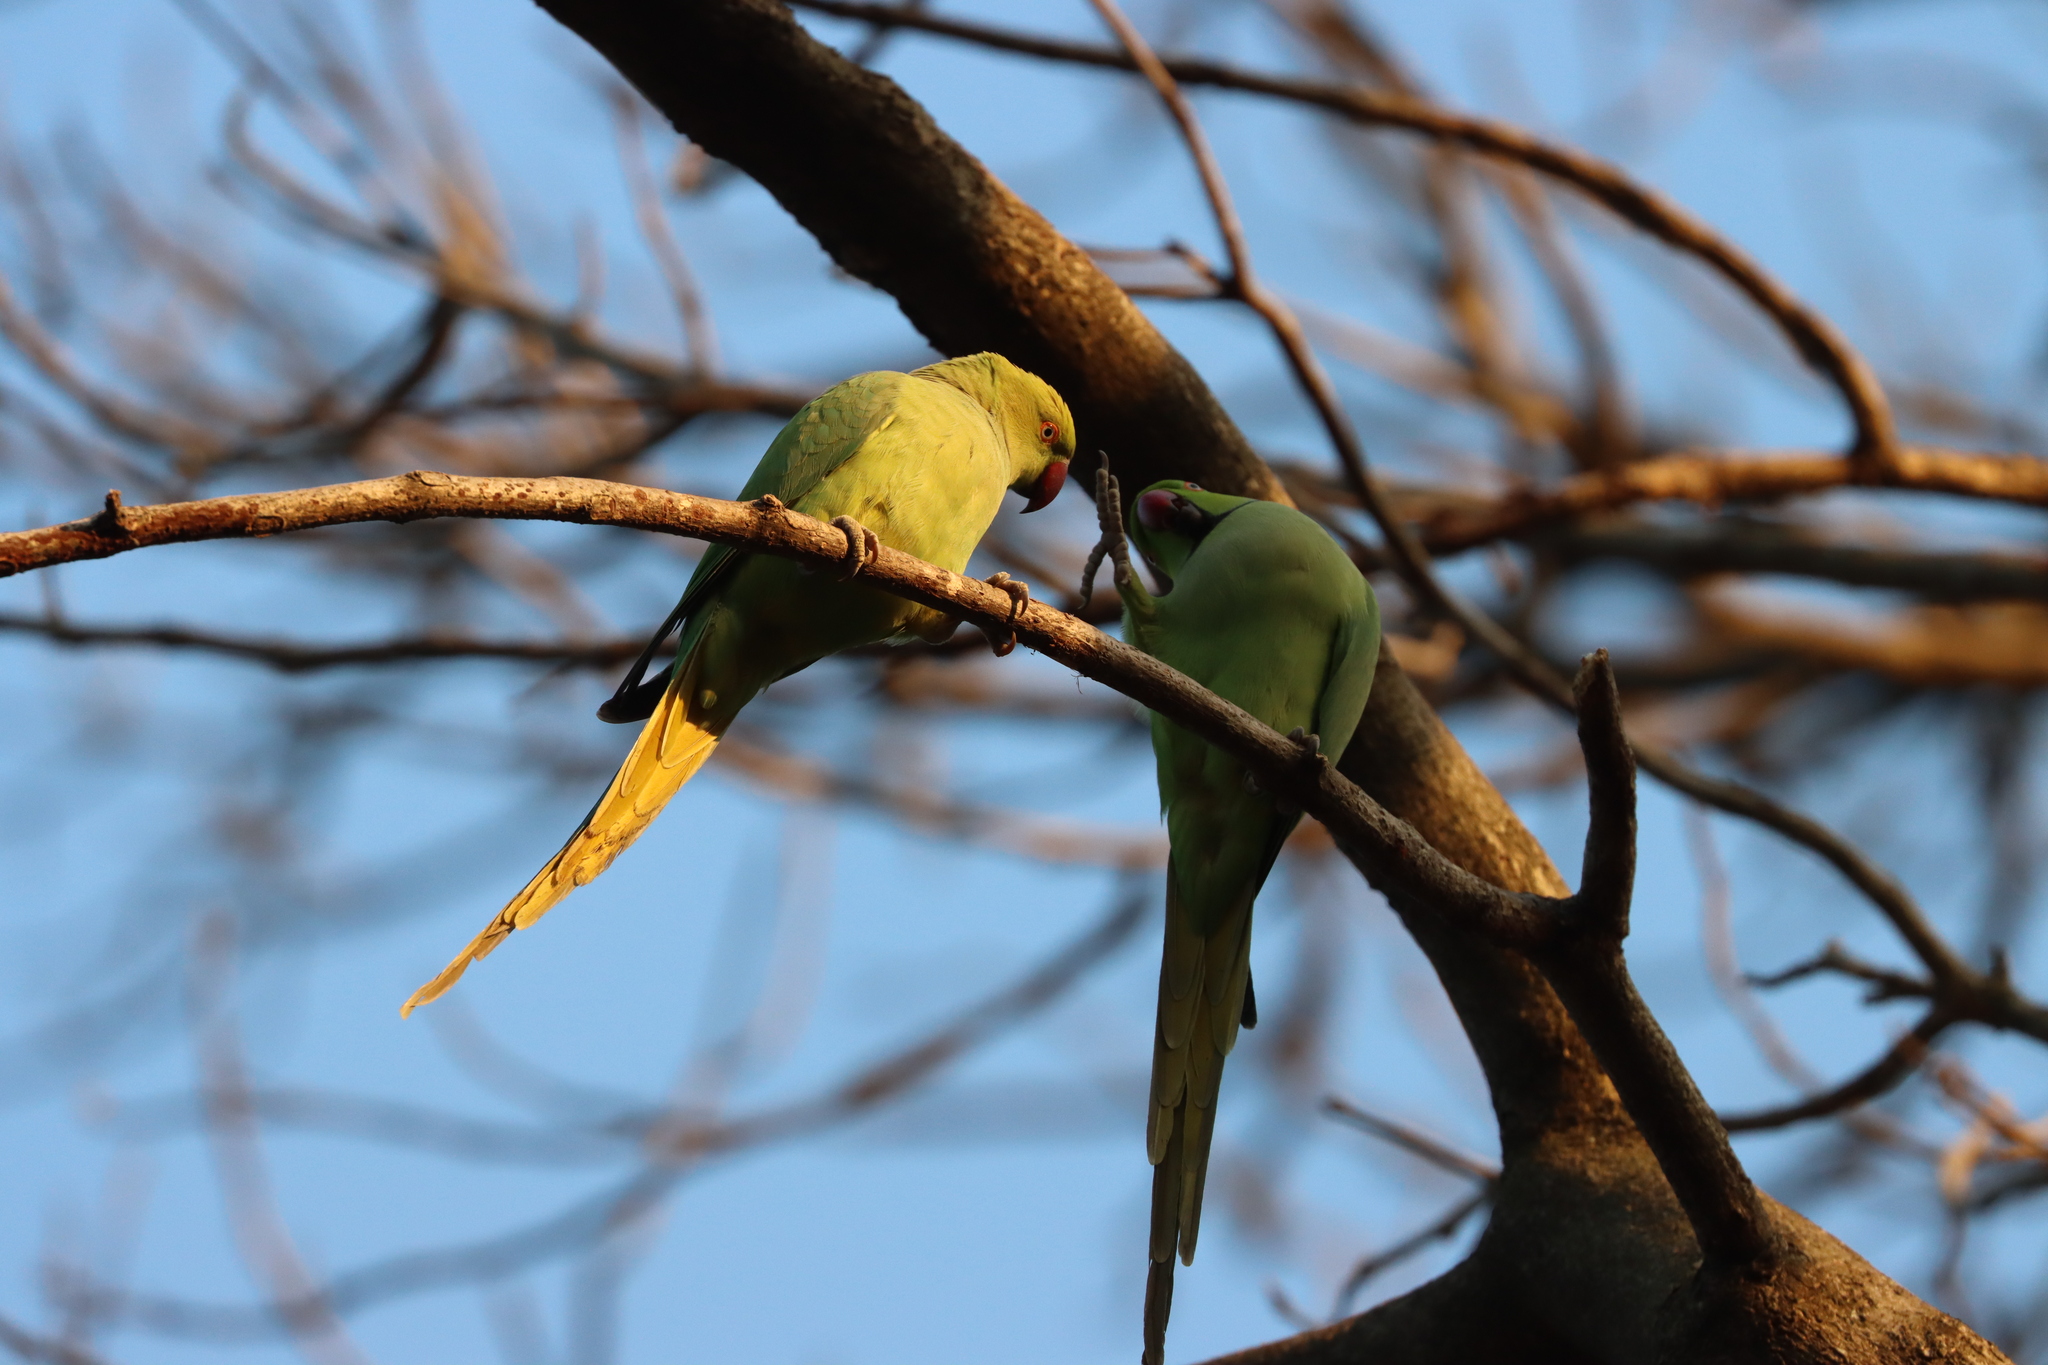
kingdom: Animalia
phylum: Chordata
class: Aves
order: Psittaciformes
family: Psittacidae
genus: Psittacula
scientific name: Psittacula krameri
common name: Rose-ringed parakeet
